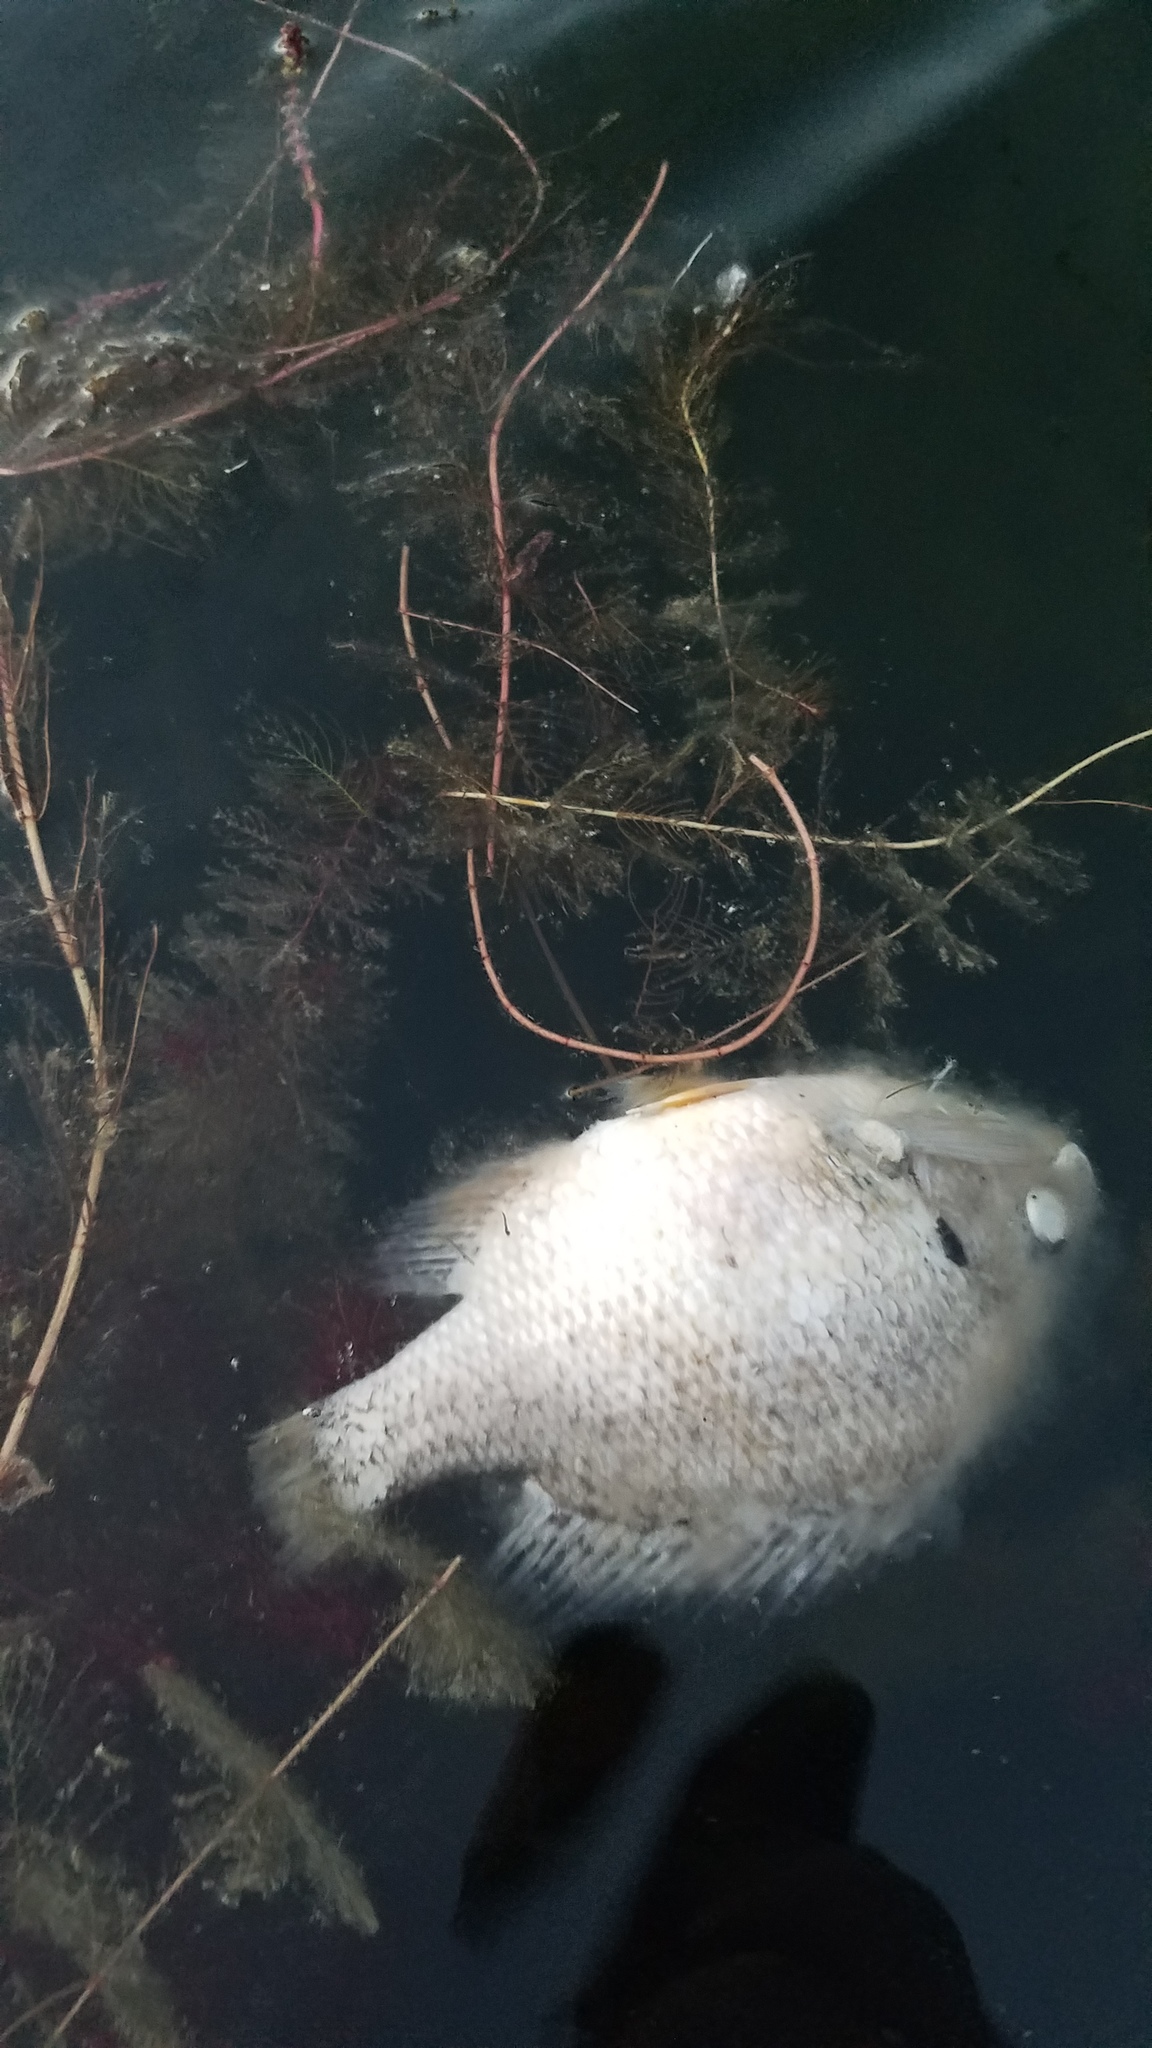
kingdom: Animalia
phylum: Chordata
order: Perciformes
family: Centrarchidae
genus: Lepomis
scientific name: Lepomis macrochirus
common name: Bluegill
